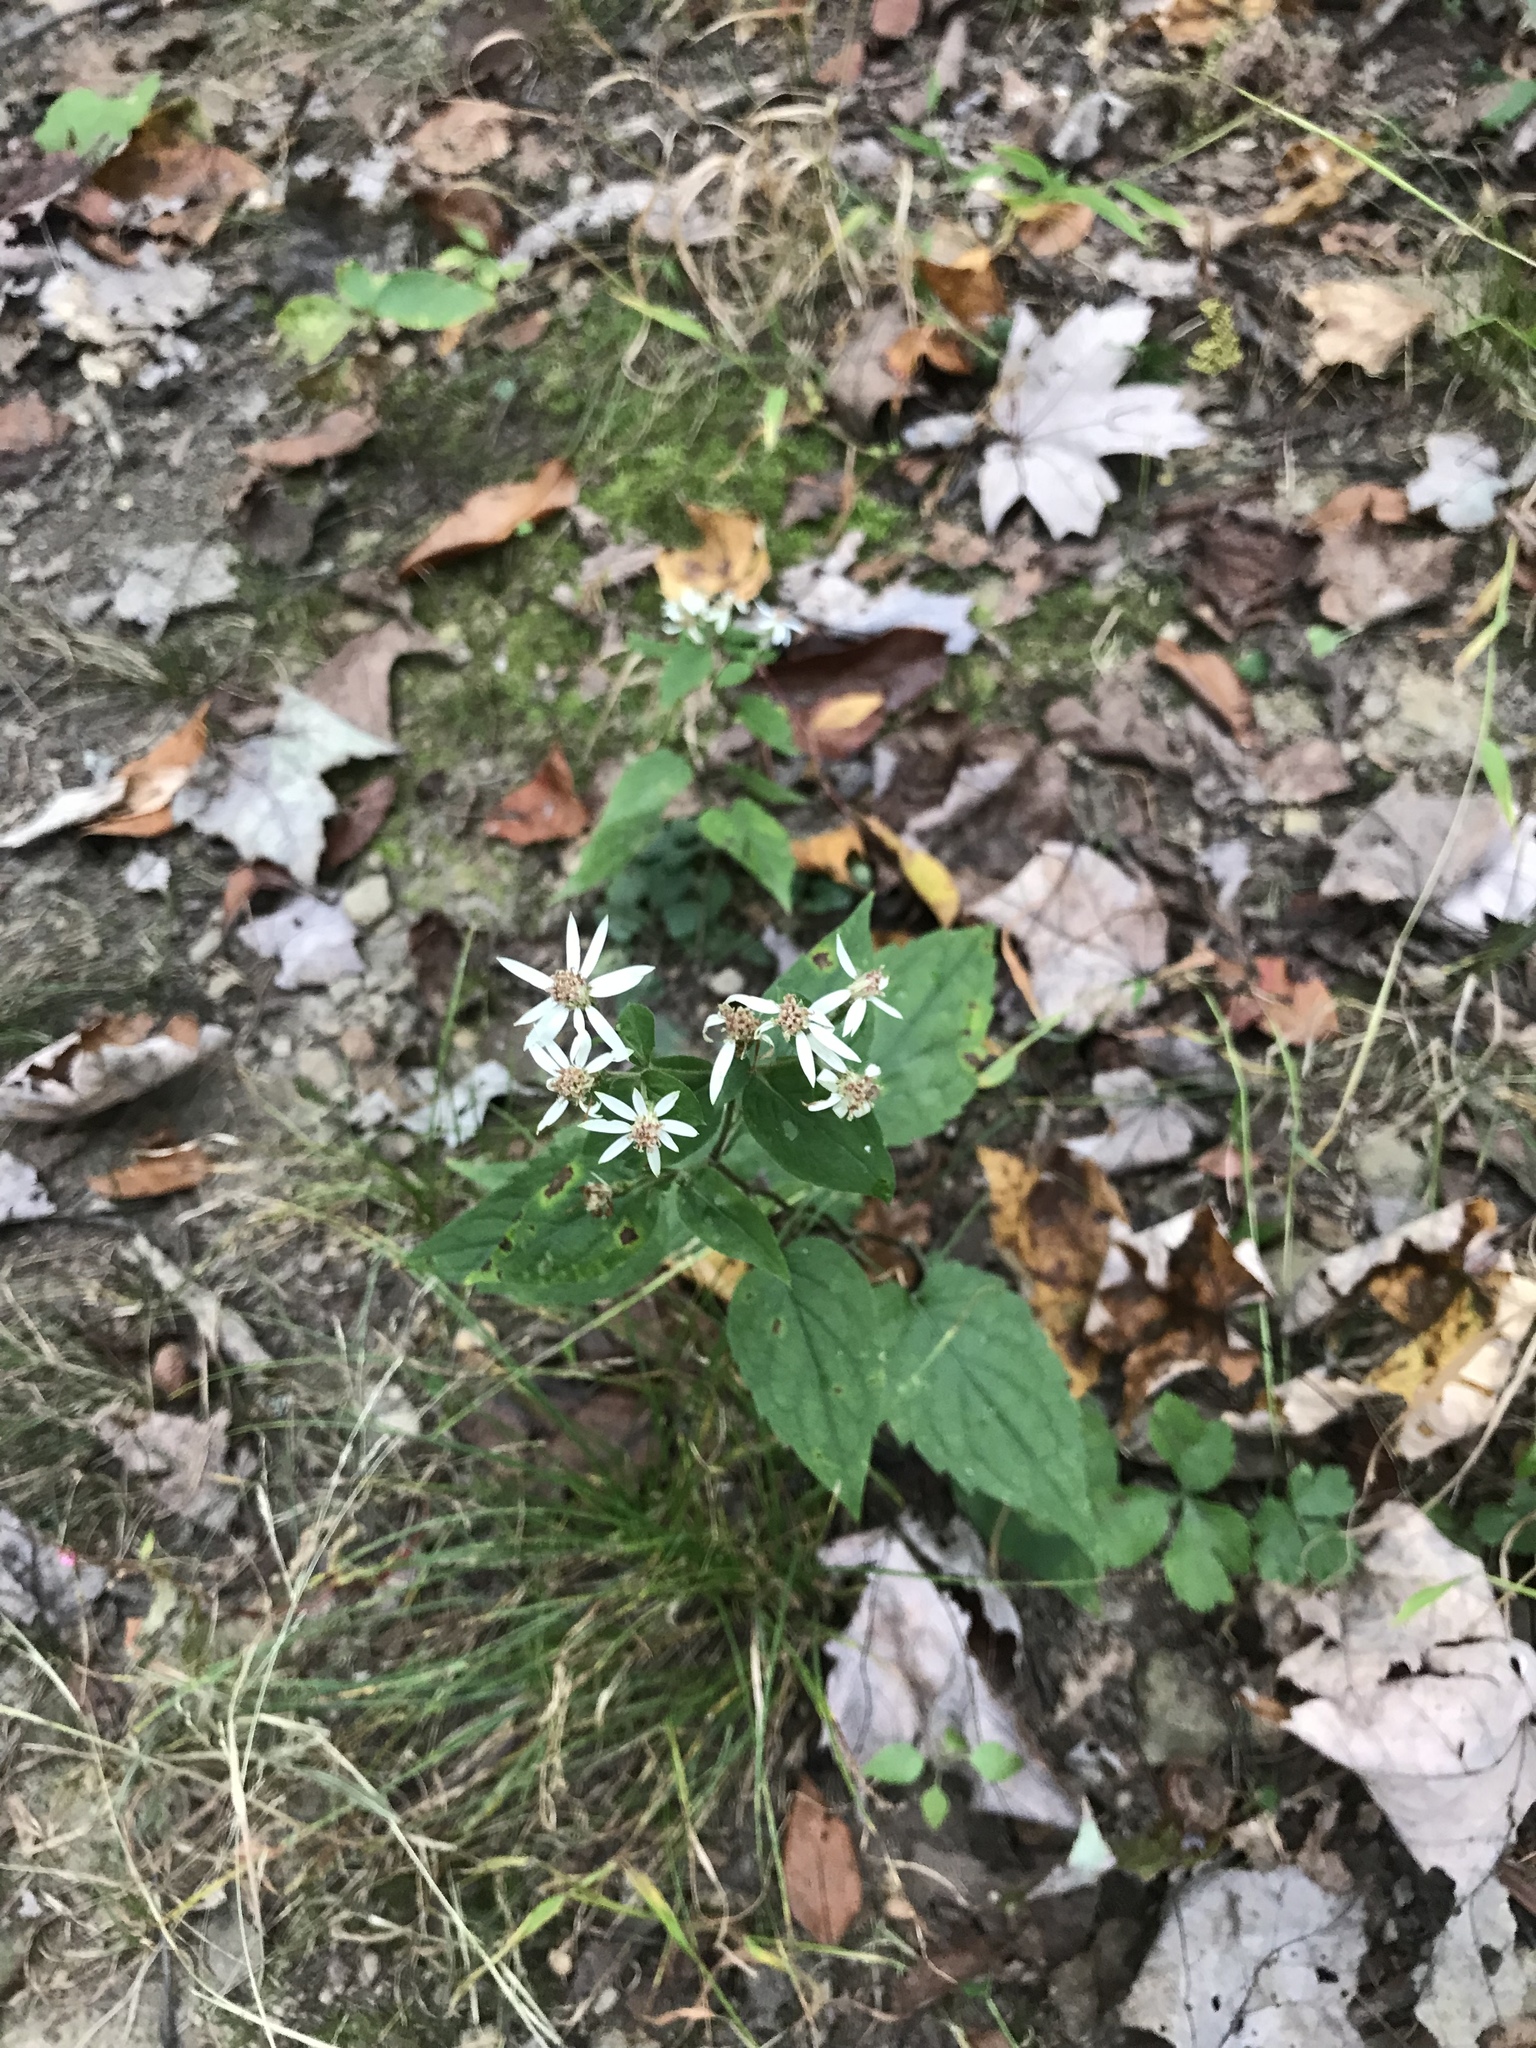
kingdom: Plantae
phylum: Tracheophyta
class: Magnoliopsida
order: Asterales
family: Asteraceae
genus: Eurybia
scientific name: Eurybia divaricata
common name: White wood aster
